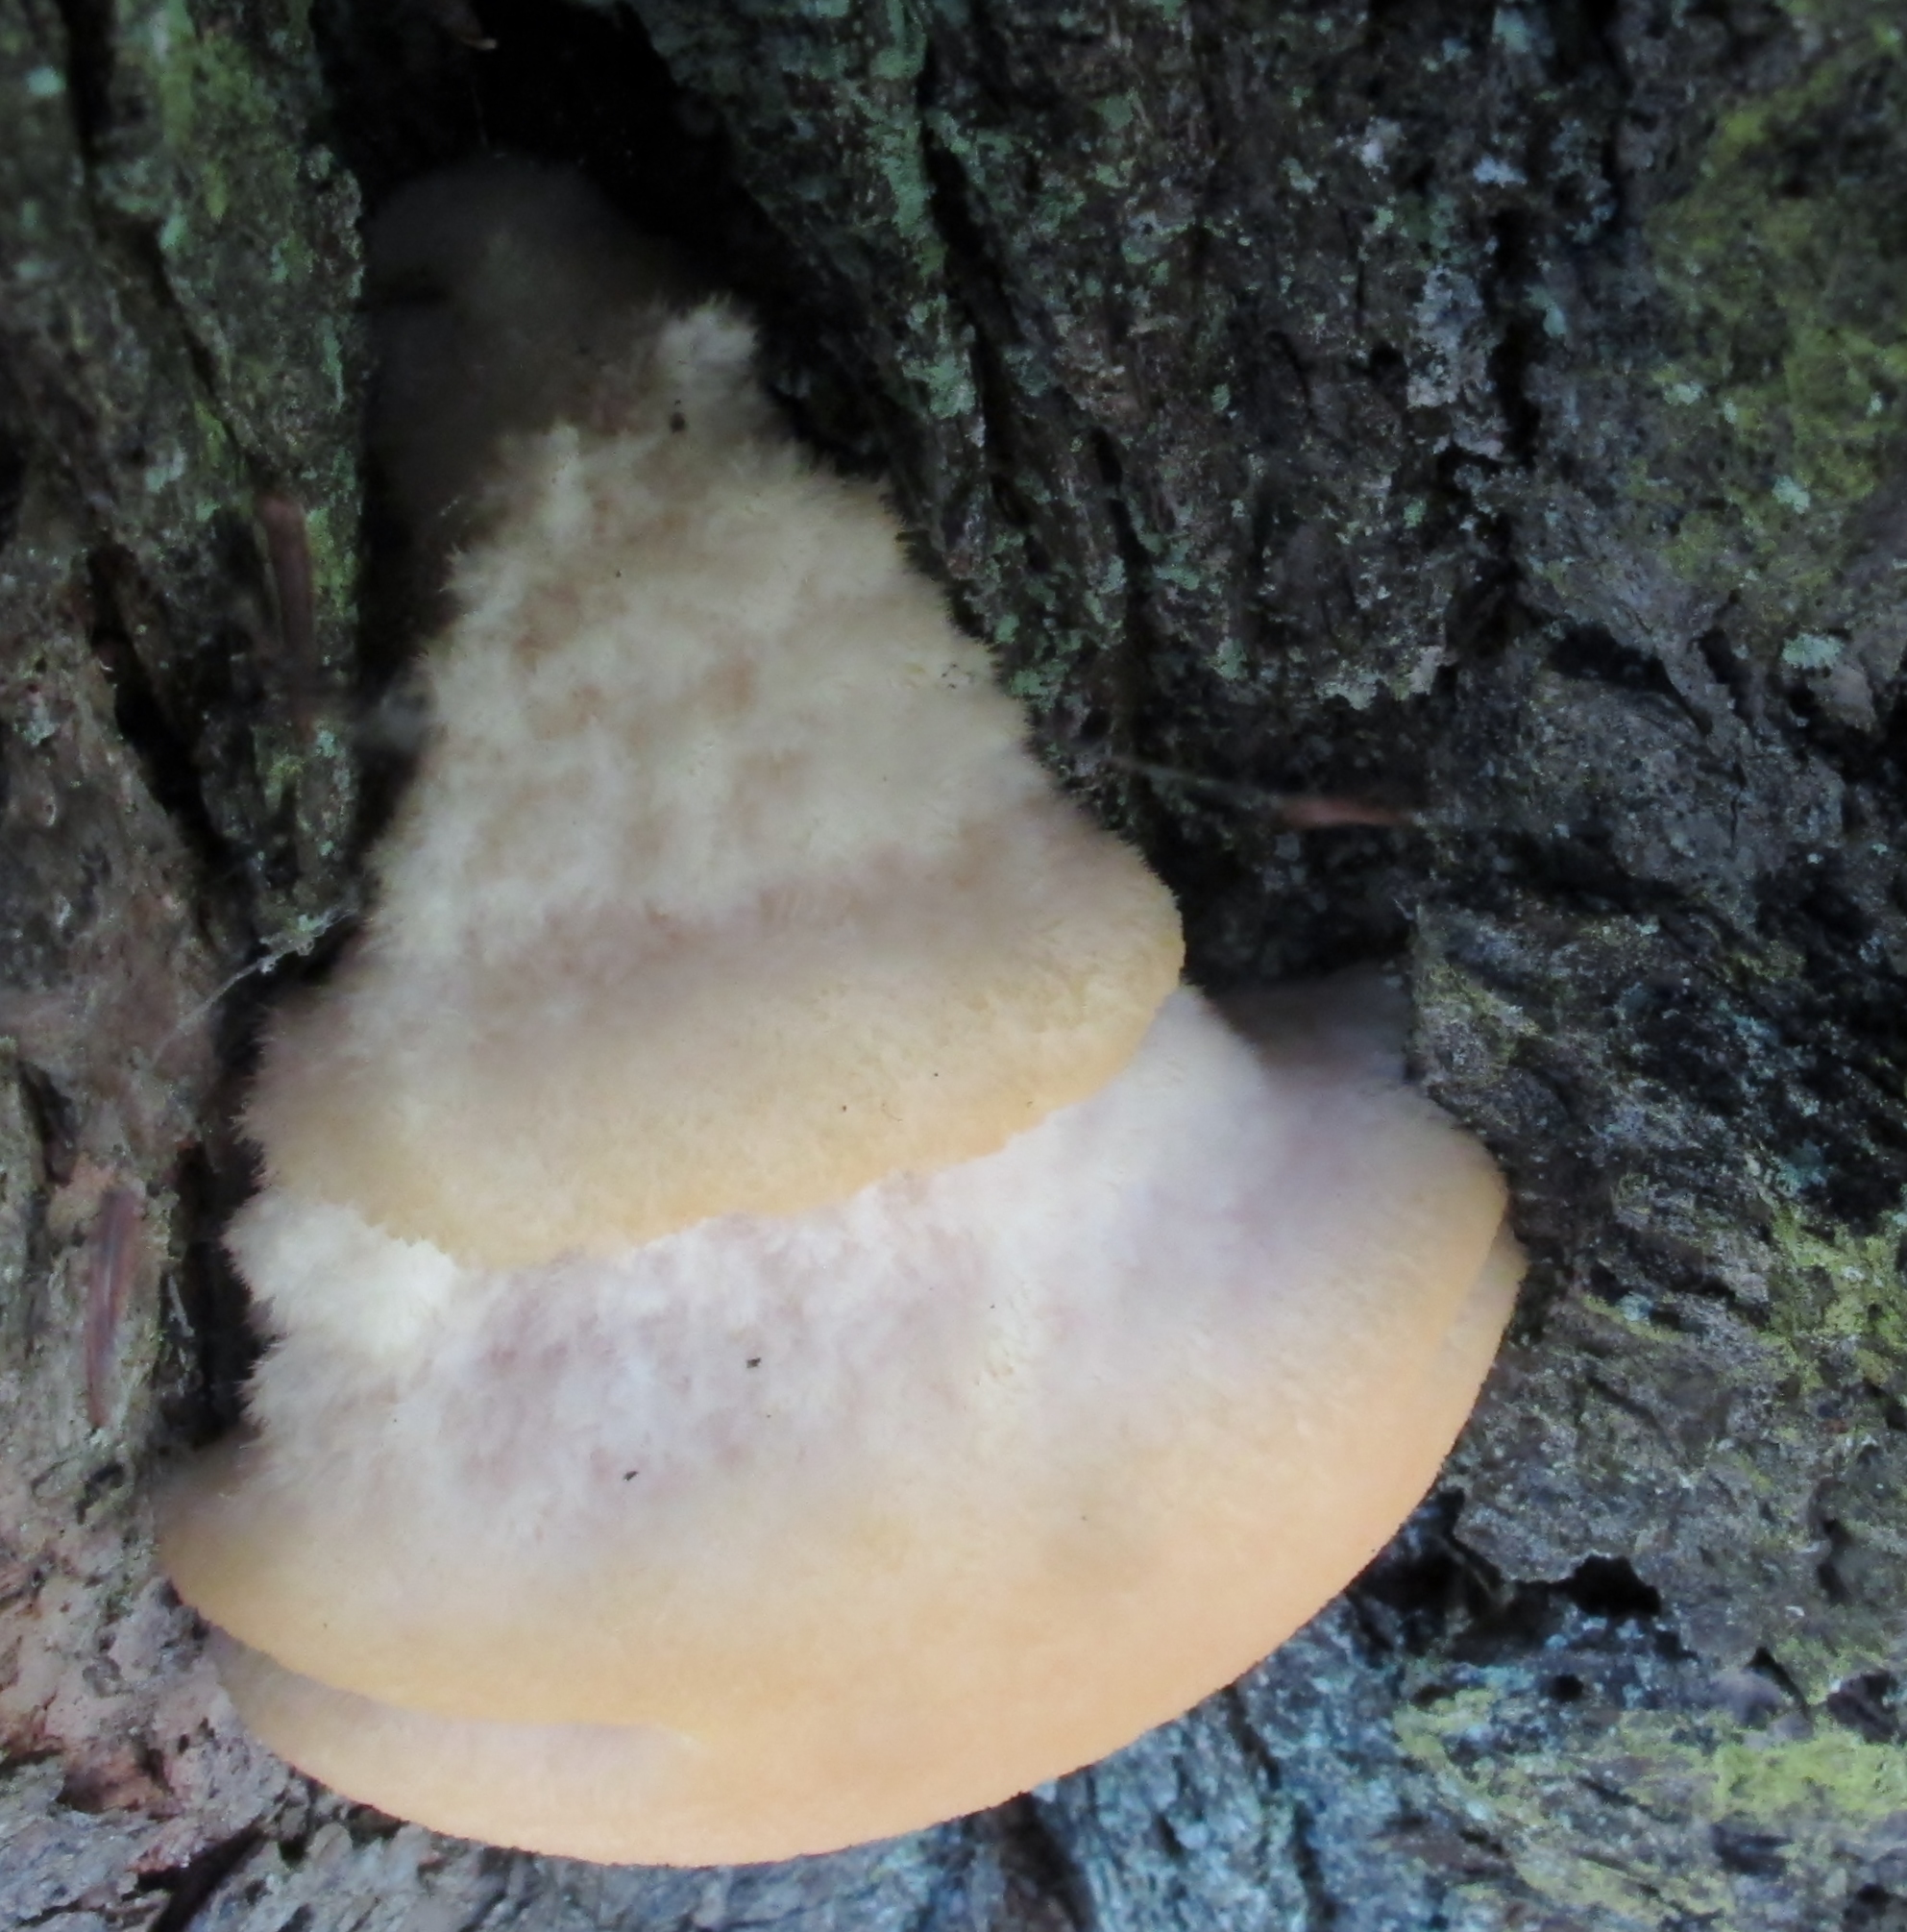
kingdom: Fungi
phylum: Basidiomycota
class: Agaricomycetes
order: Polyporales
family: Fomitopsidaceae
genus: Climacocystis
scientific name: Climacocystis borealis
